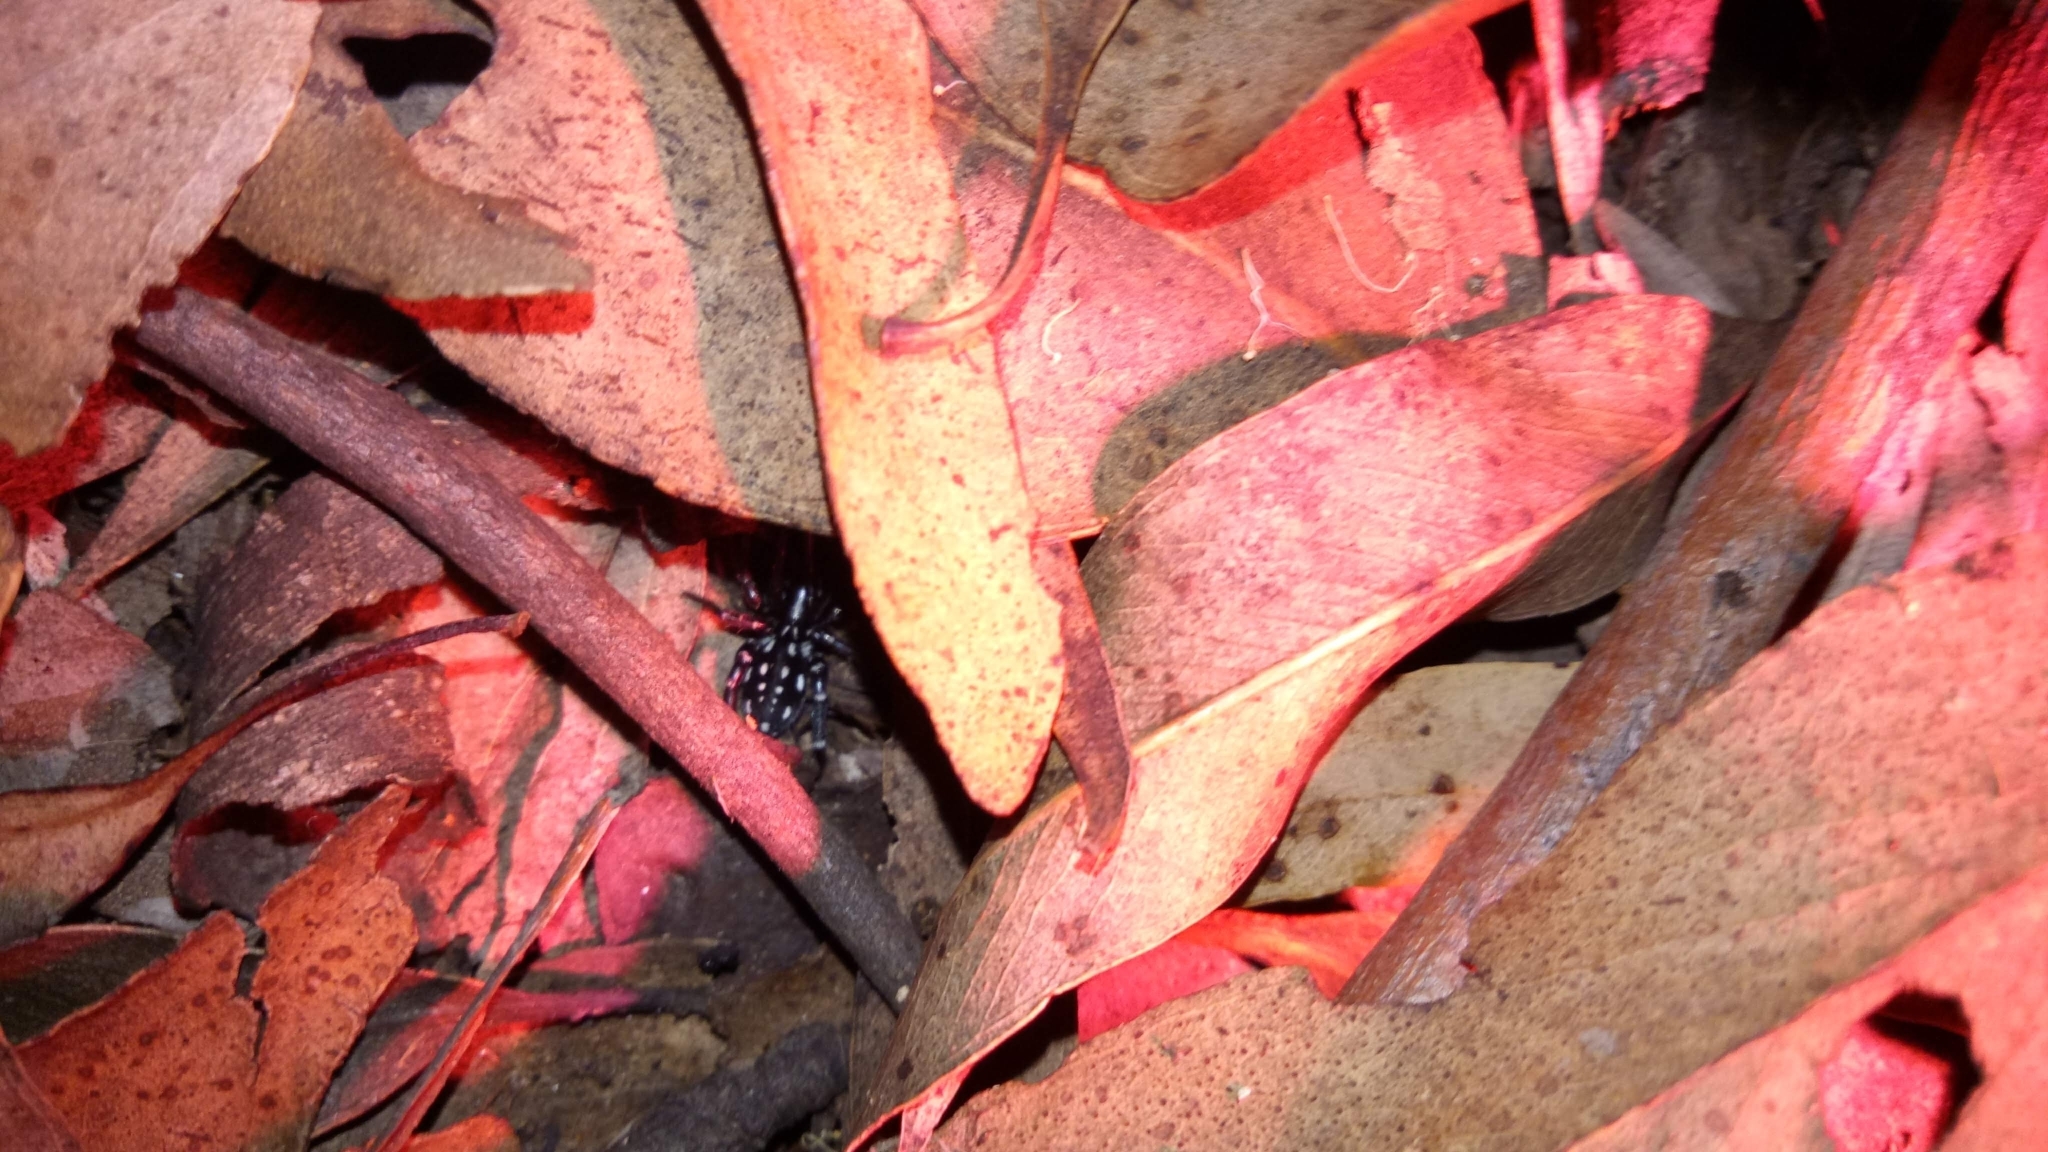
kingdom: Animalia
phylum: Arthropoda
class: Arachnida
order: Araneae
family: Corinnidae
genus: Nyssus
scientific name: Nyssus albopunctatus
